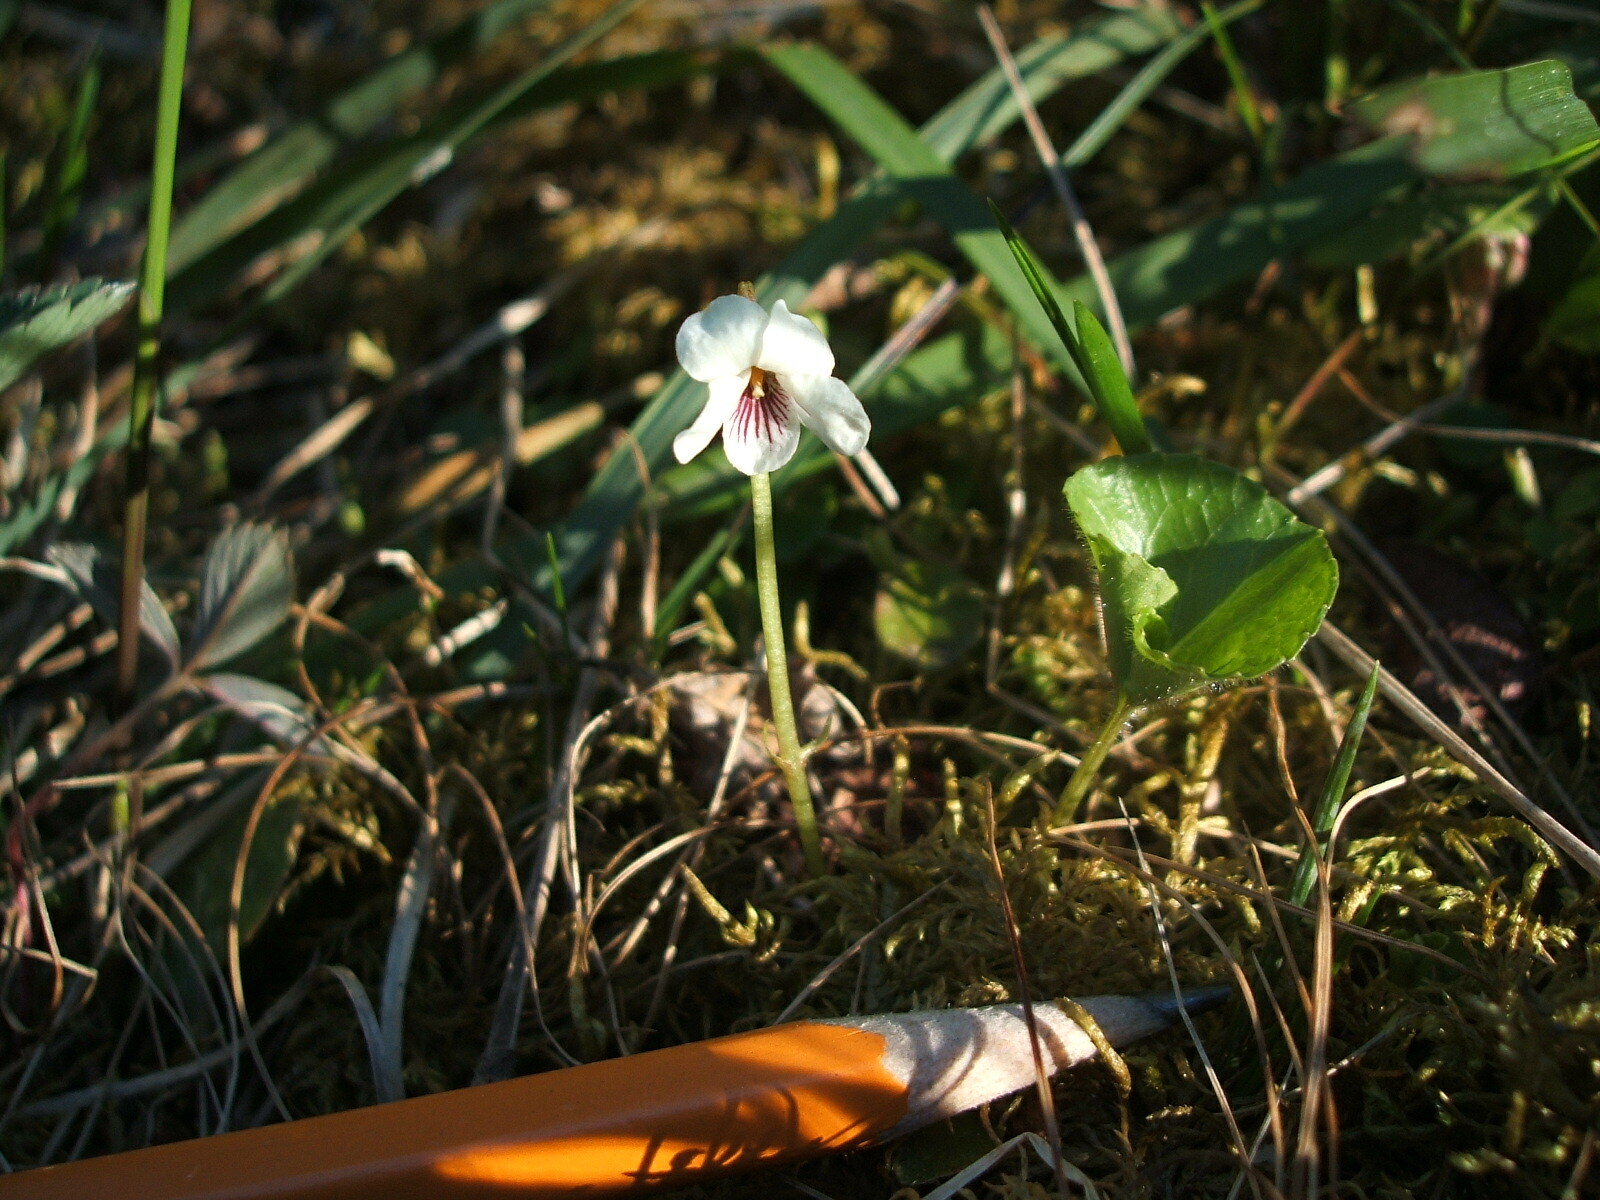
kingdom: Plantae
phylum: Tracheophyta
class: Magnoliopsida
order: Malpighiales
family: Violaceae
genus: Viola
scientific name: Viola renifolia
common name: Kidney-leaf violet
